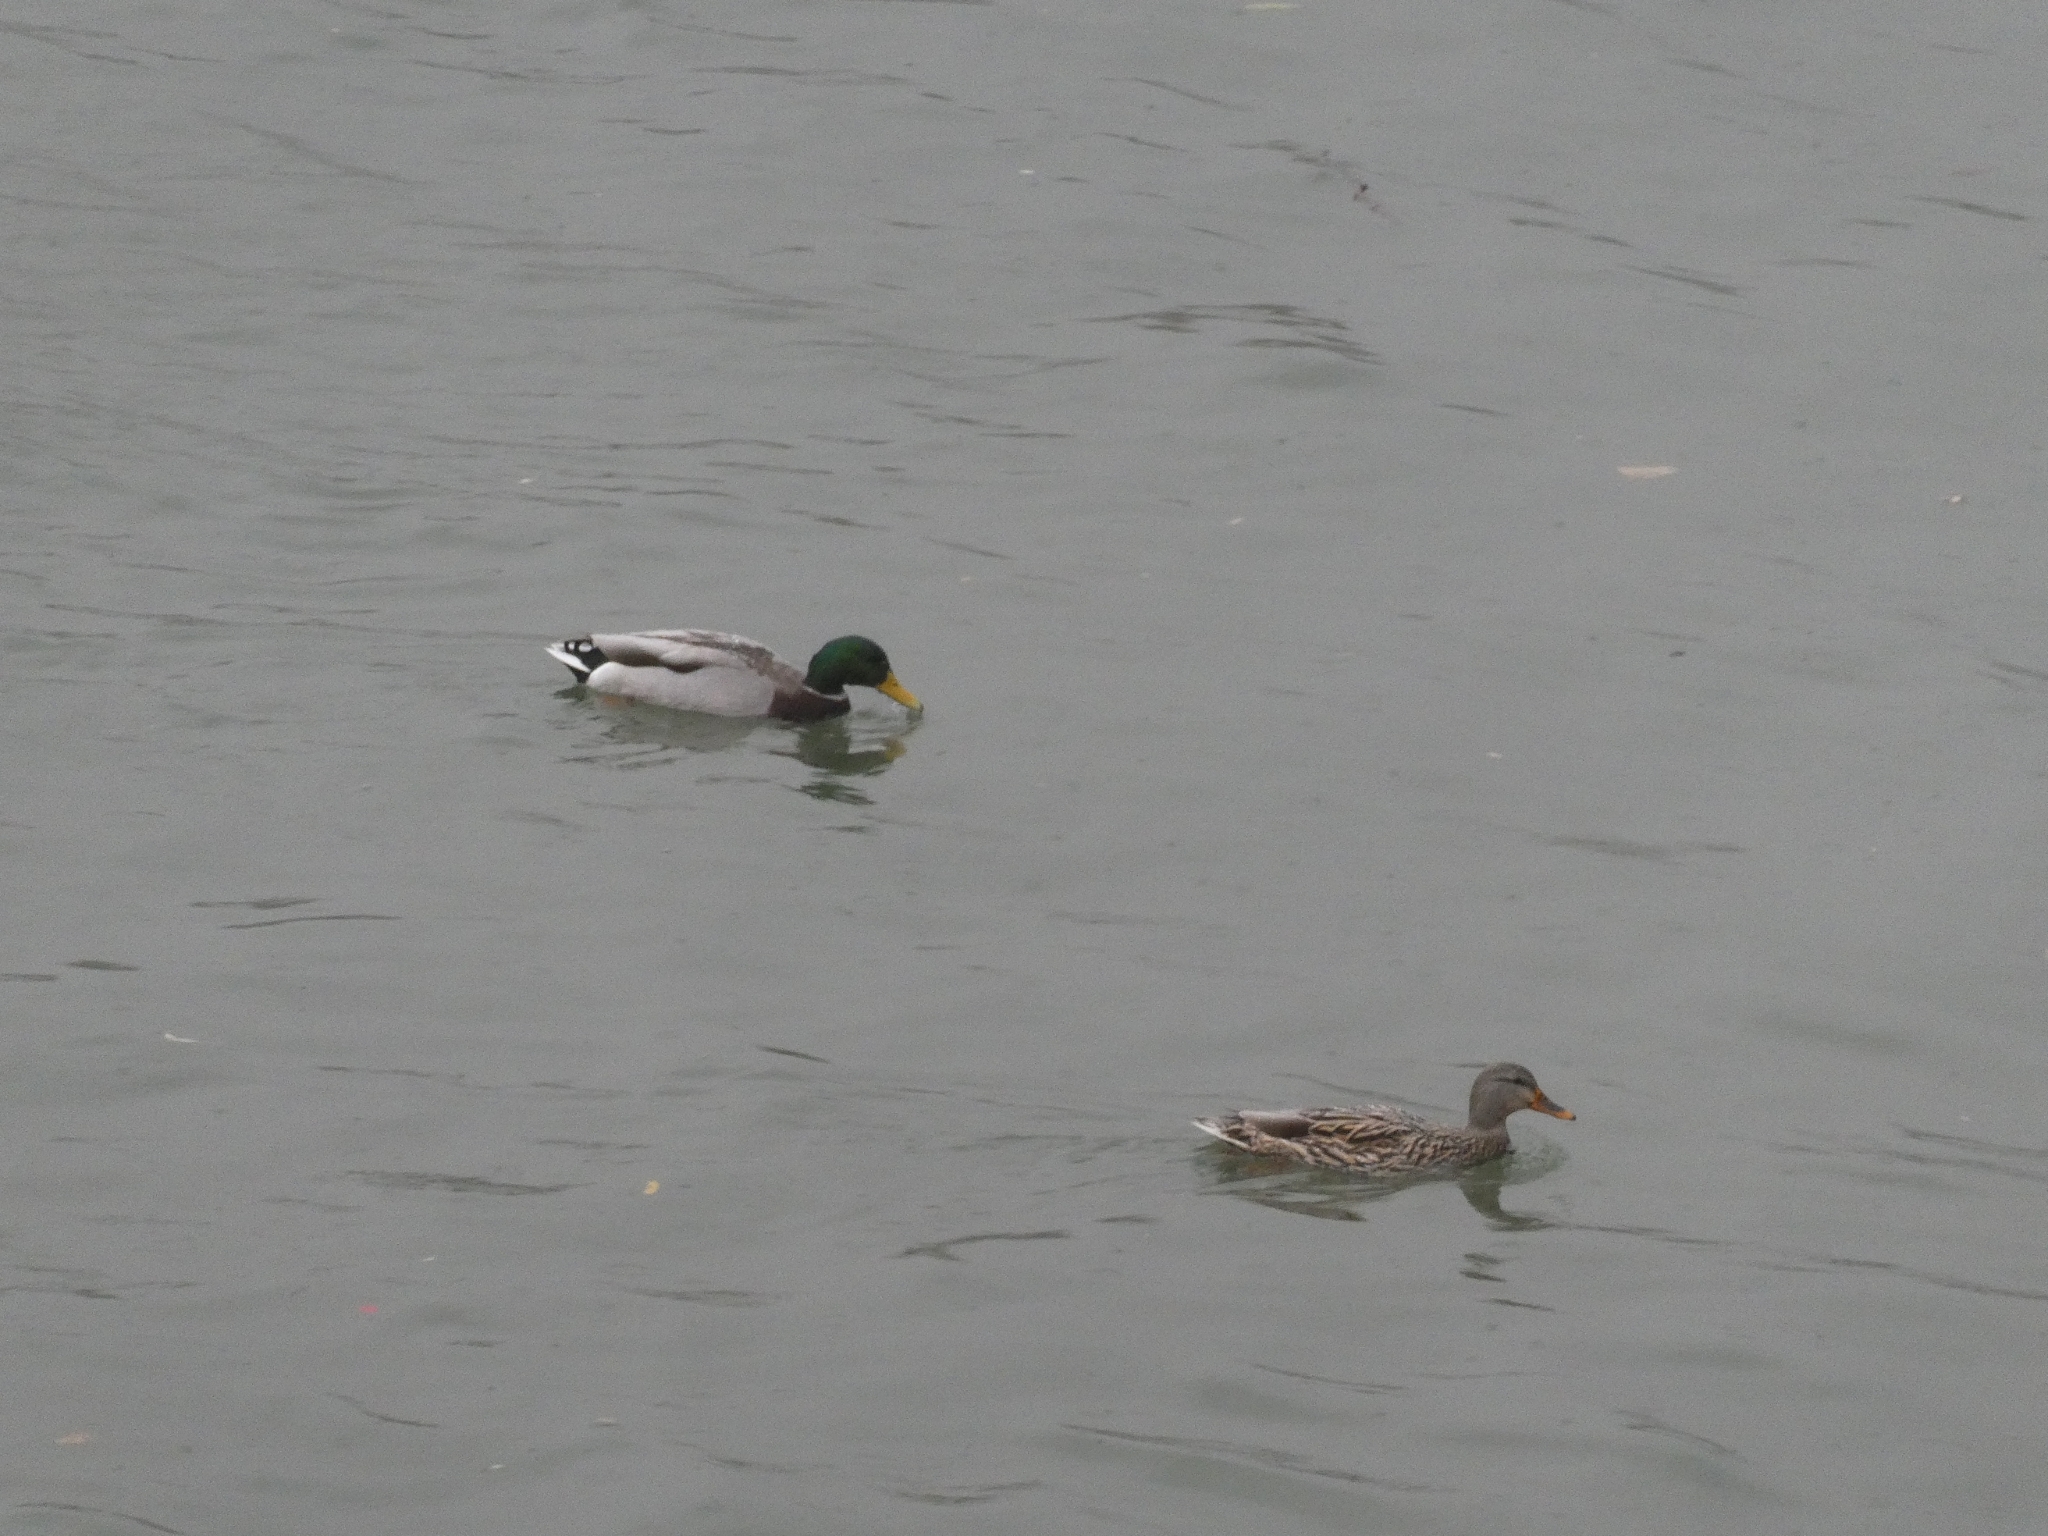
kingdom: Animalia
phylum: Chordata
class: Aves
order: Anseriformes
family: Anatidae
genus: Anas
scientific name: Anas platyrhynchos
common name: Mallard
